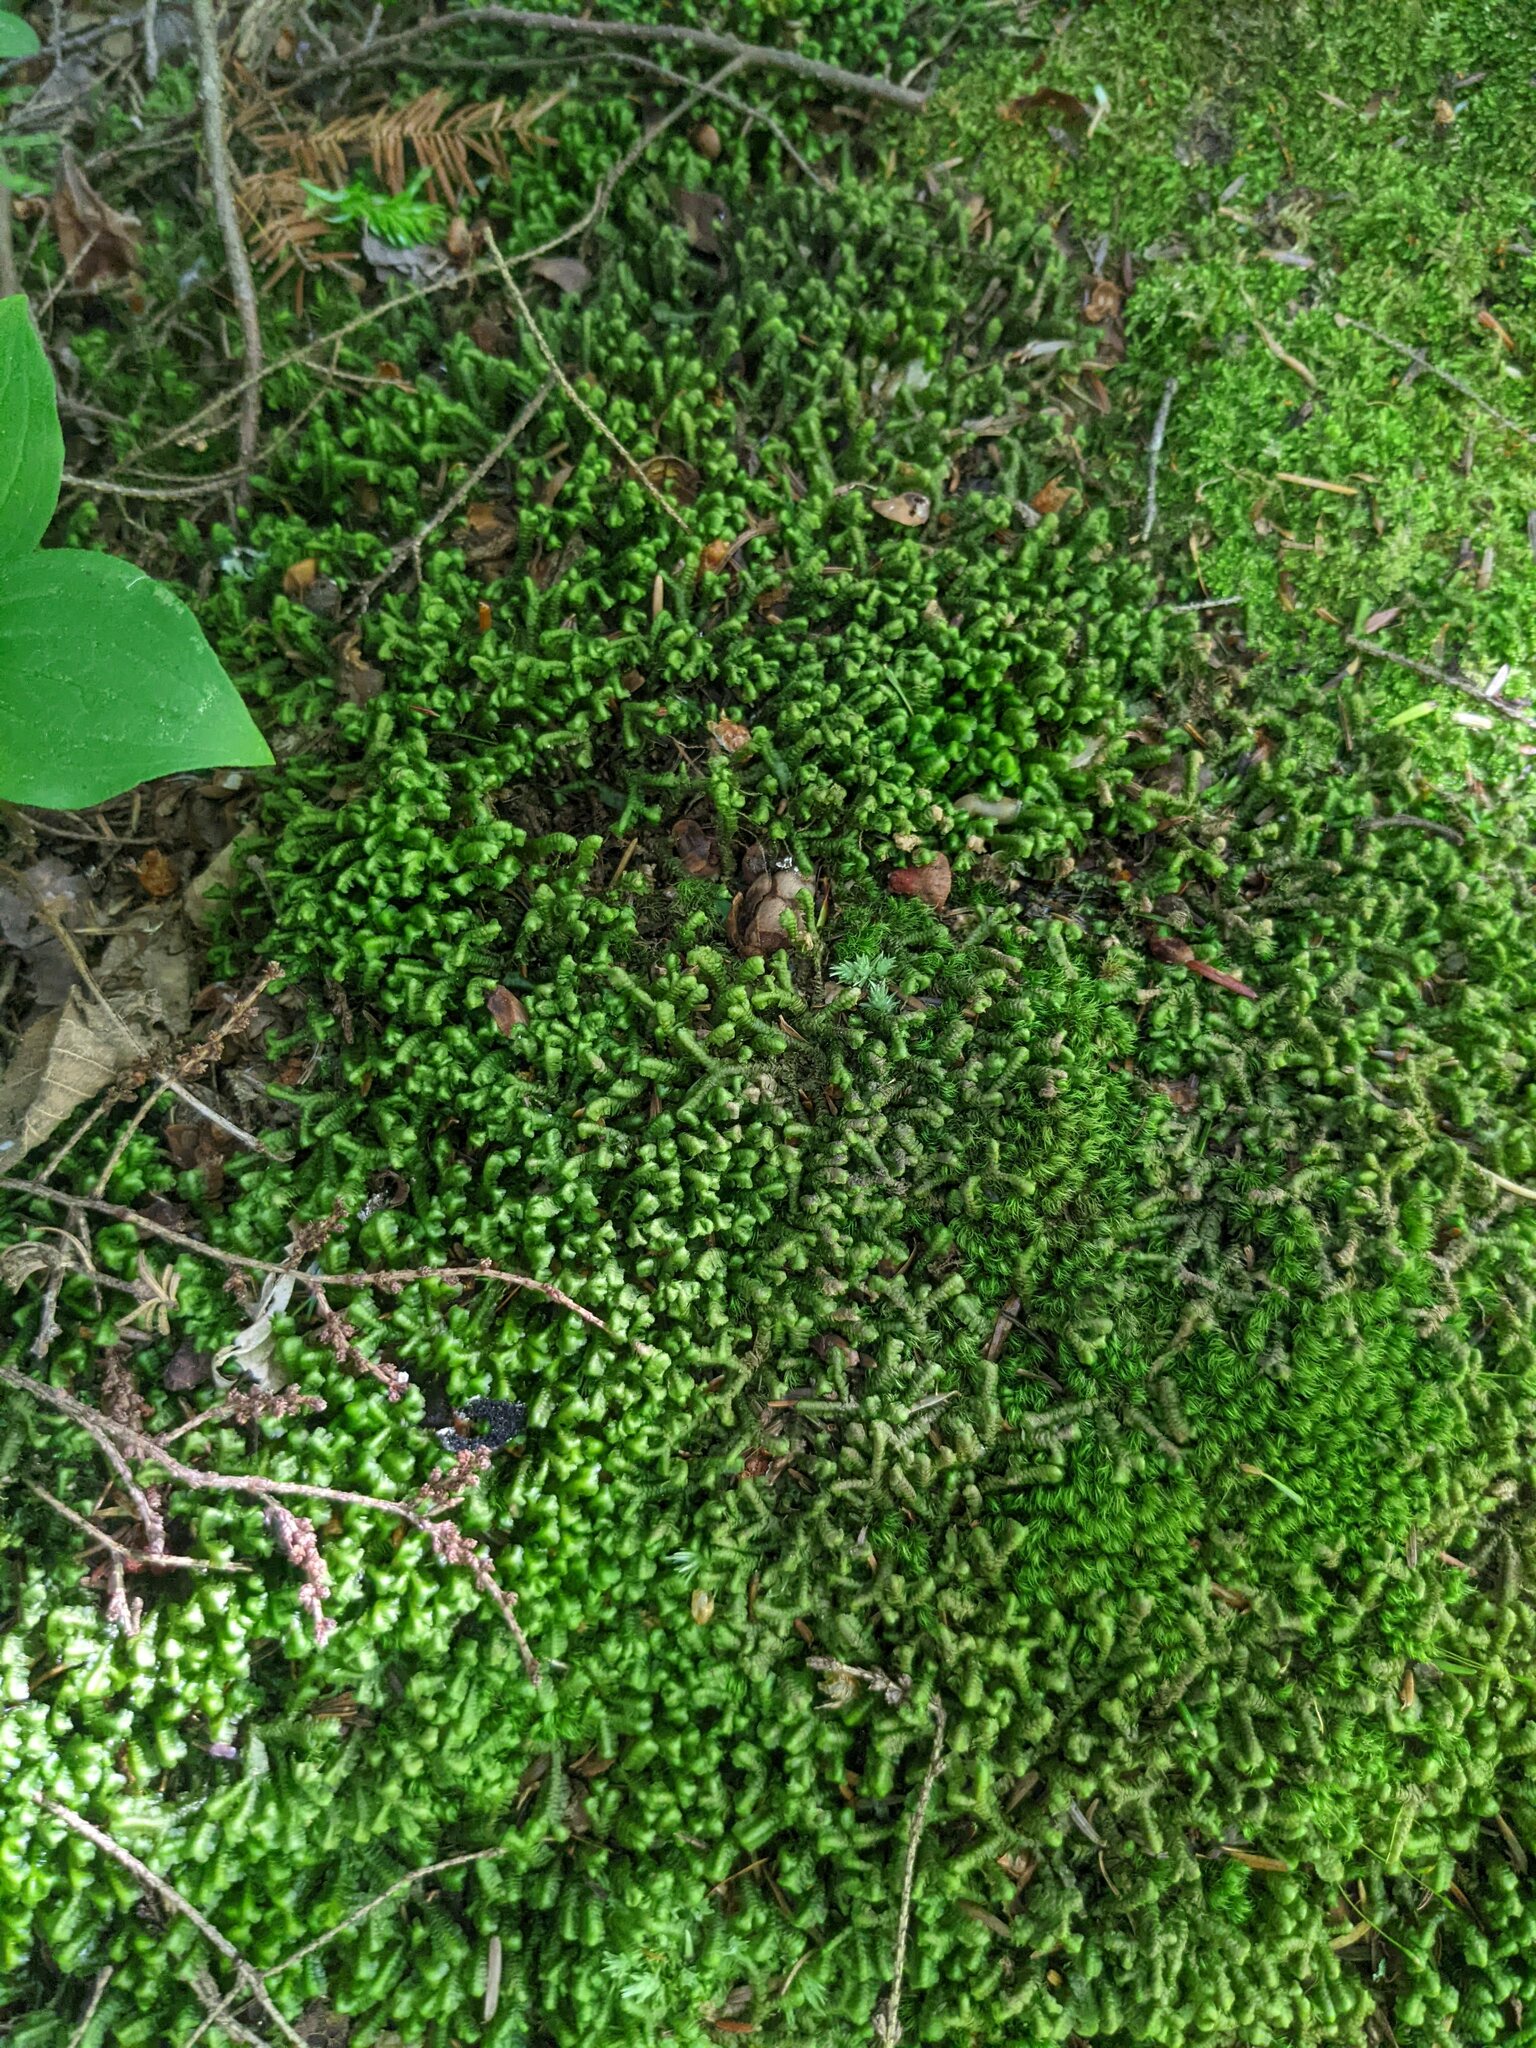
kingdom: Plantae
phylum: Marchantiophyta
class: Jungermanniopsida
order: Jungermanniales
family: Lepidoziaceae
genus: Bazzania
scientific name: Bazzania trilobata
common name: Three-lobed whipwort
